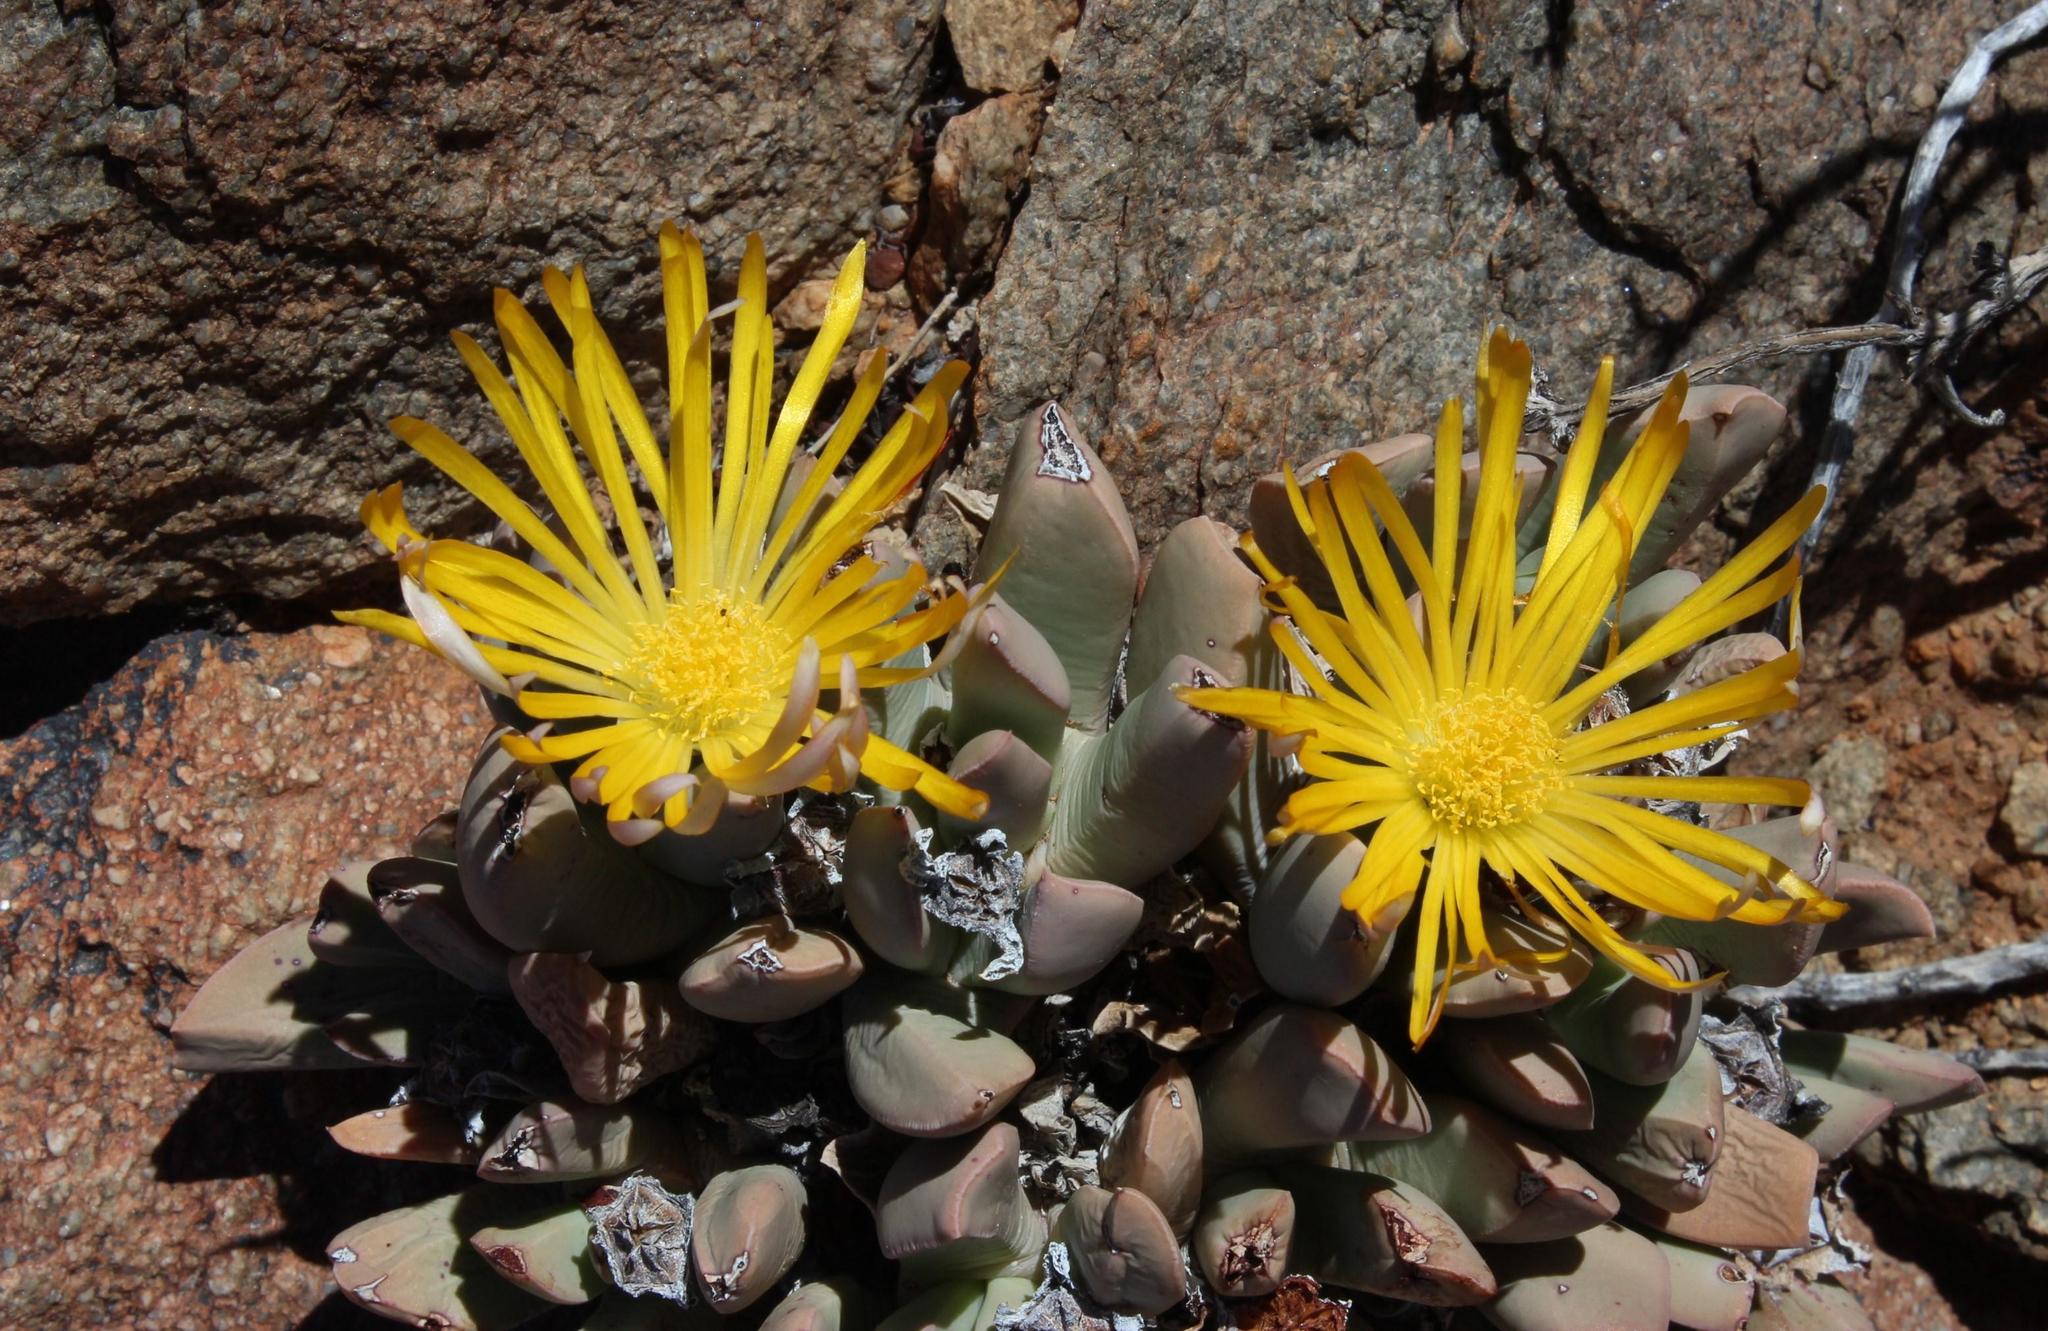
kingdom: Plantae
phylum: Tracheophyta
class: Magnoliopsida
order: Caryophyllales
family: Aizoaceae
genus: Schwantesia
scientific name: Schwantesia herrei
